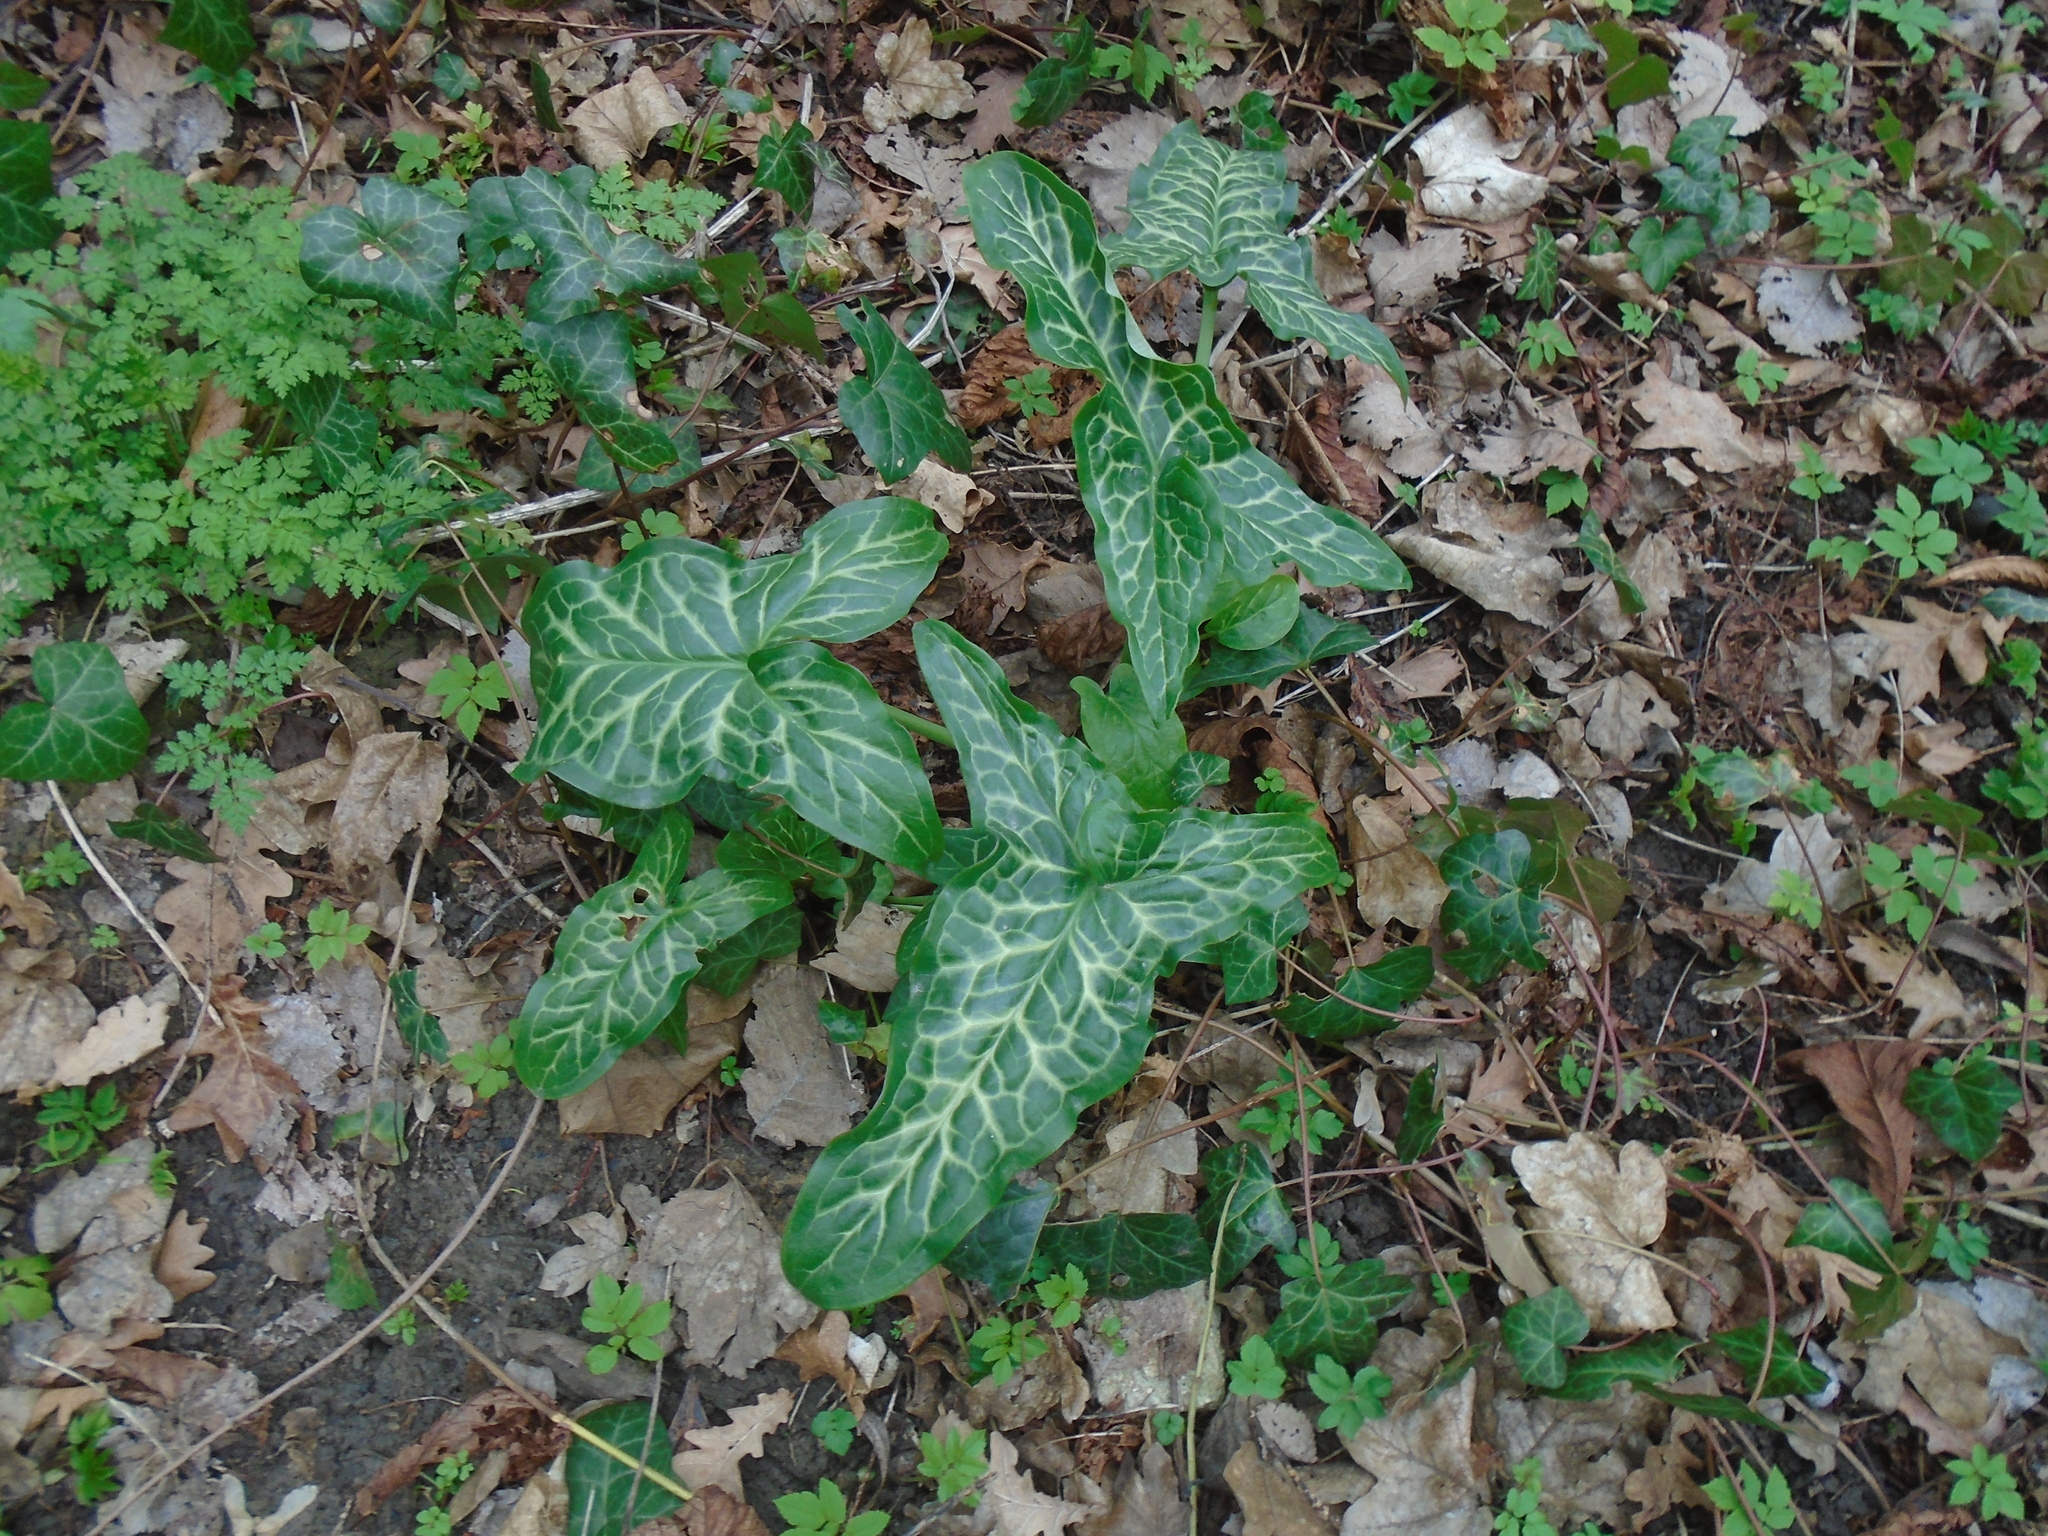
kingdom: Plantae
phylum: Tracheophyta
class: Liliopsida
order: Alismatales
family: Araceae
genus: Arum
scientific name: Arum italicum
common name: Italian lords-and-ladies
